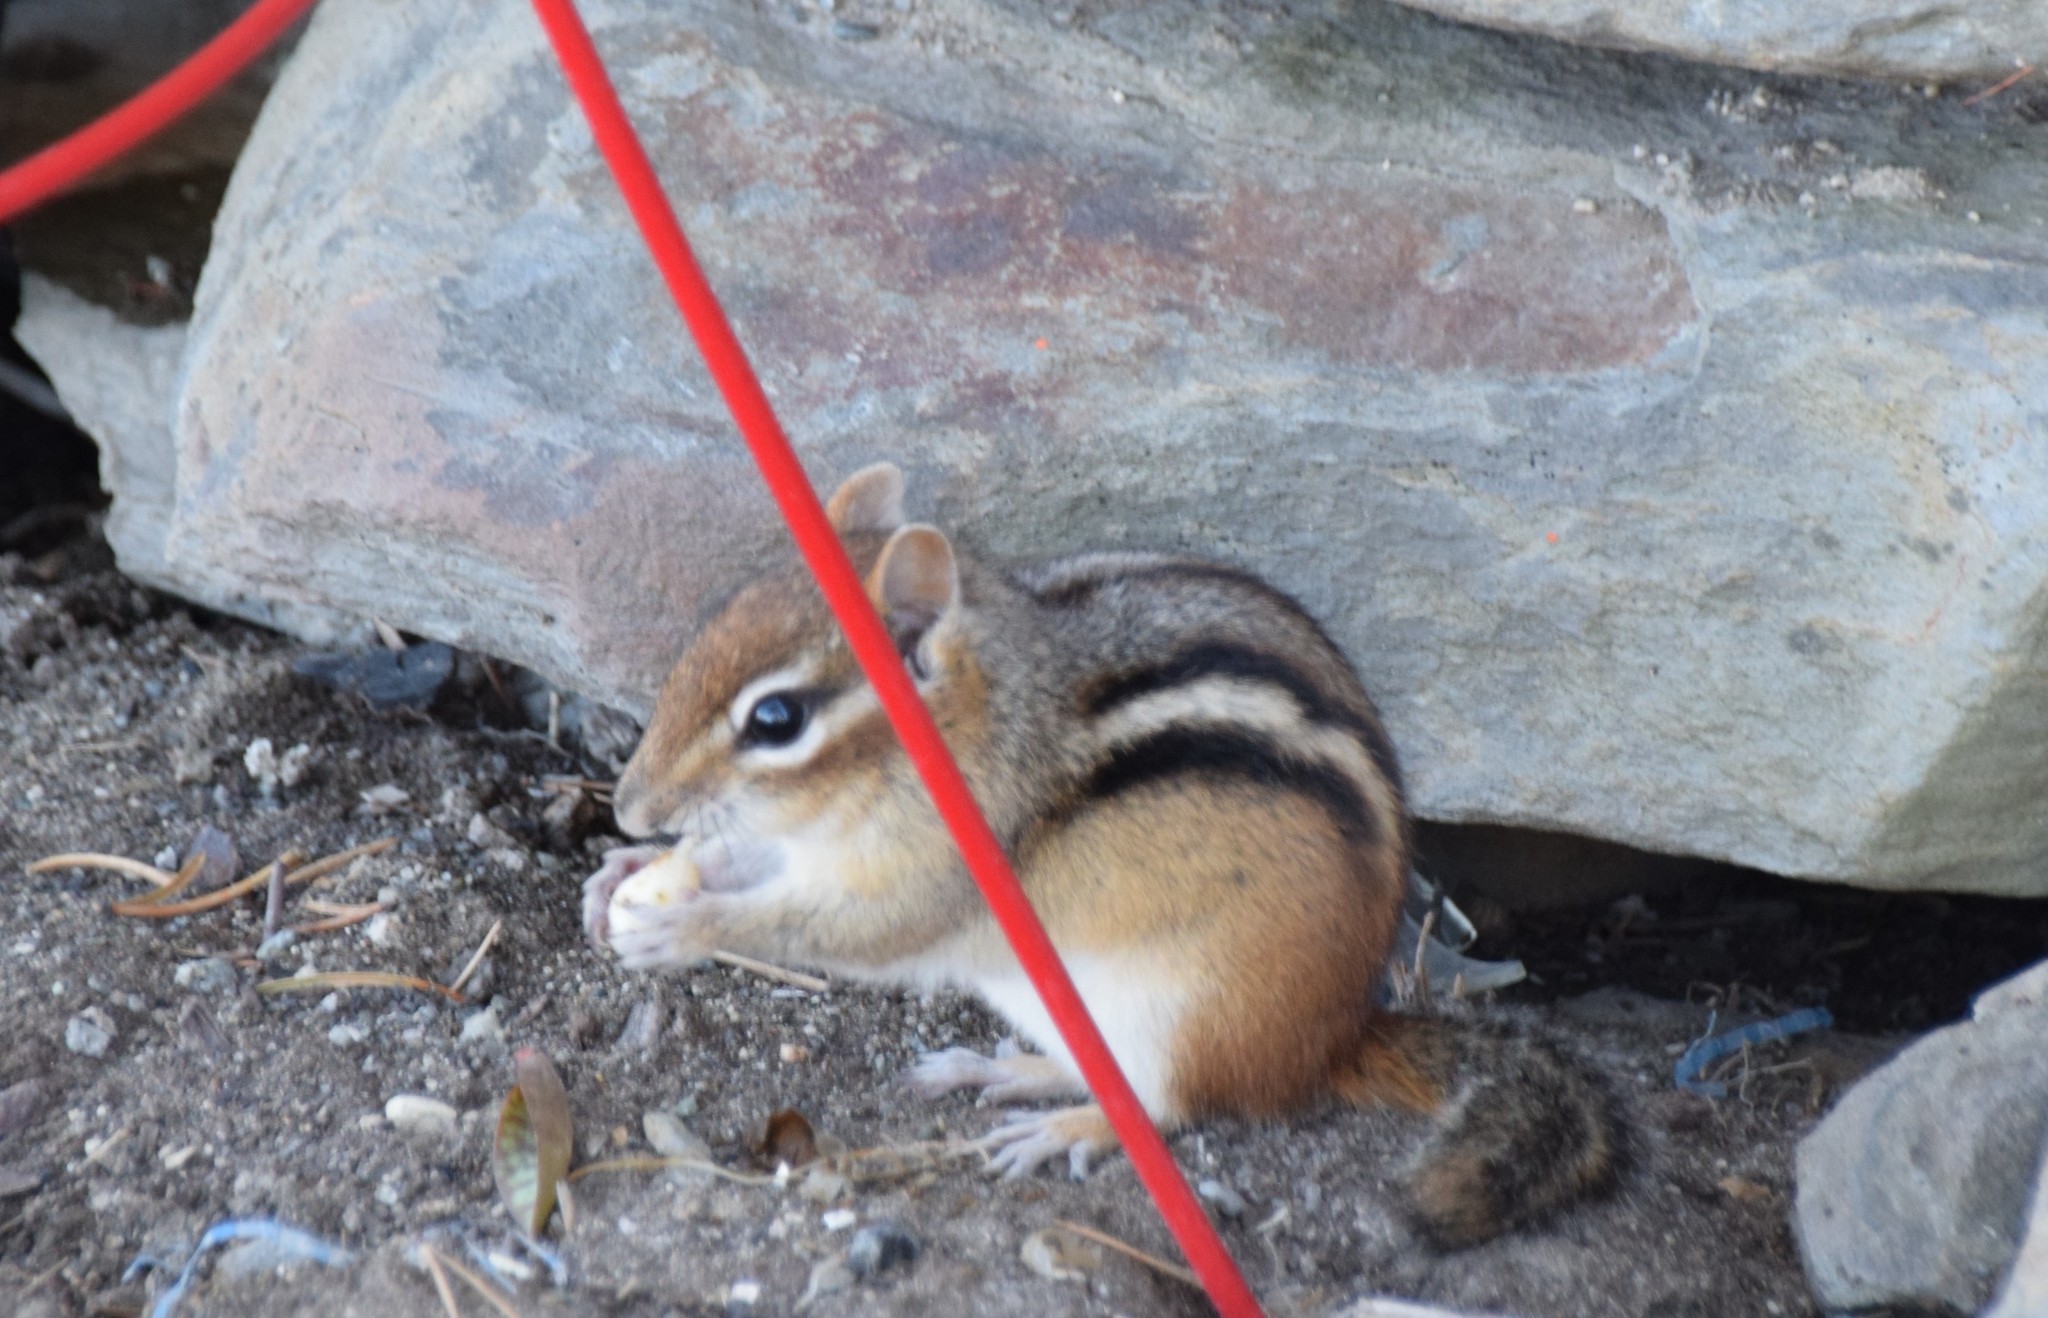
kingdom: Animalia
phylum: Chordata
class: Mammalia
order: Rodentia
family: Sciuridae
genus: Tamias
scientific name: Tamias striatus
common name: Eastern chipmunk
